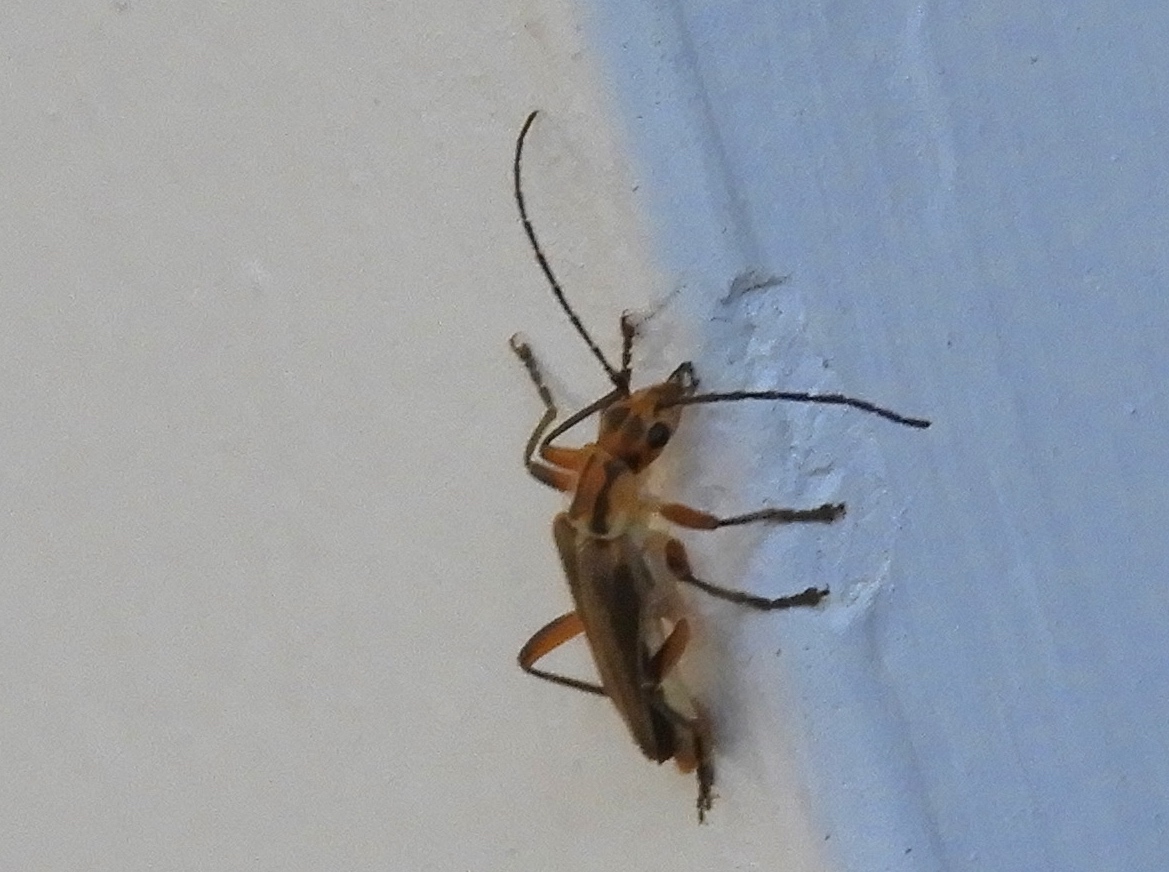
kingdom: Animalia
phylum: Arthropoda
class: Insecta
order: Coleoptera
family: Cantharidae
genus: Chauliognathus
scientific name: Chauliognathus
